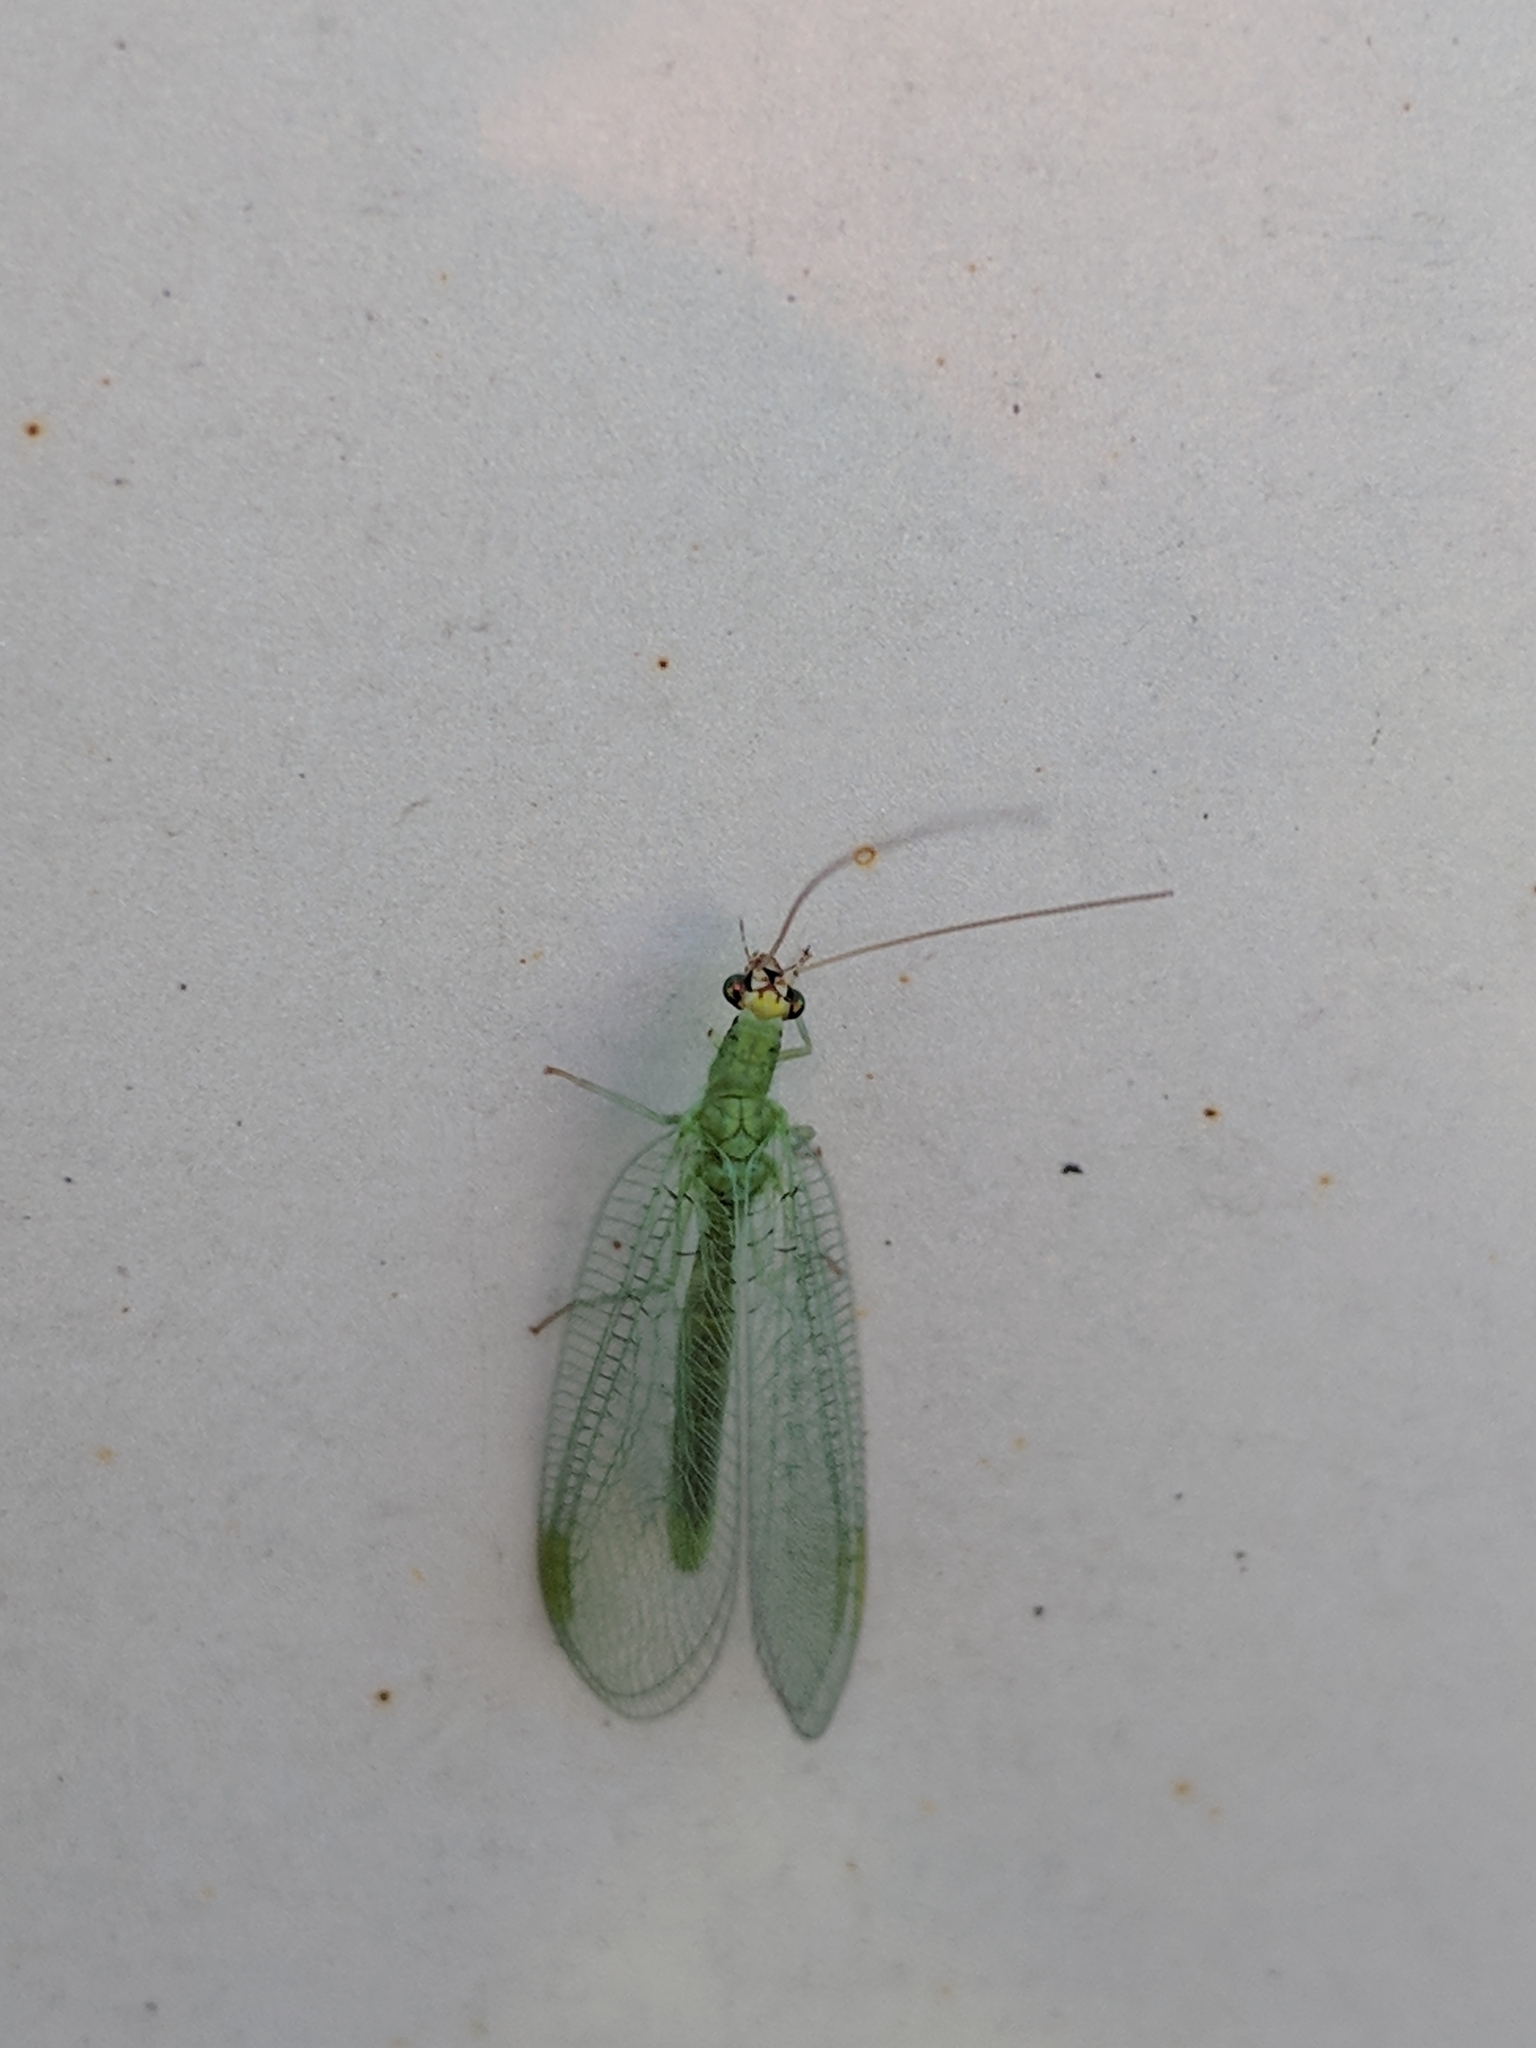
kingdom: Animalia
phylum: Arthropoda
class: Insecta
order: Neuroptera
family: Chrysopidae
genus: Chrysopa
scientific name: Chrysopa oculata
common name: Golden-eyed lacewing
